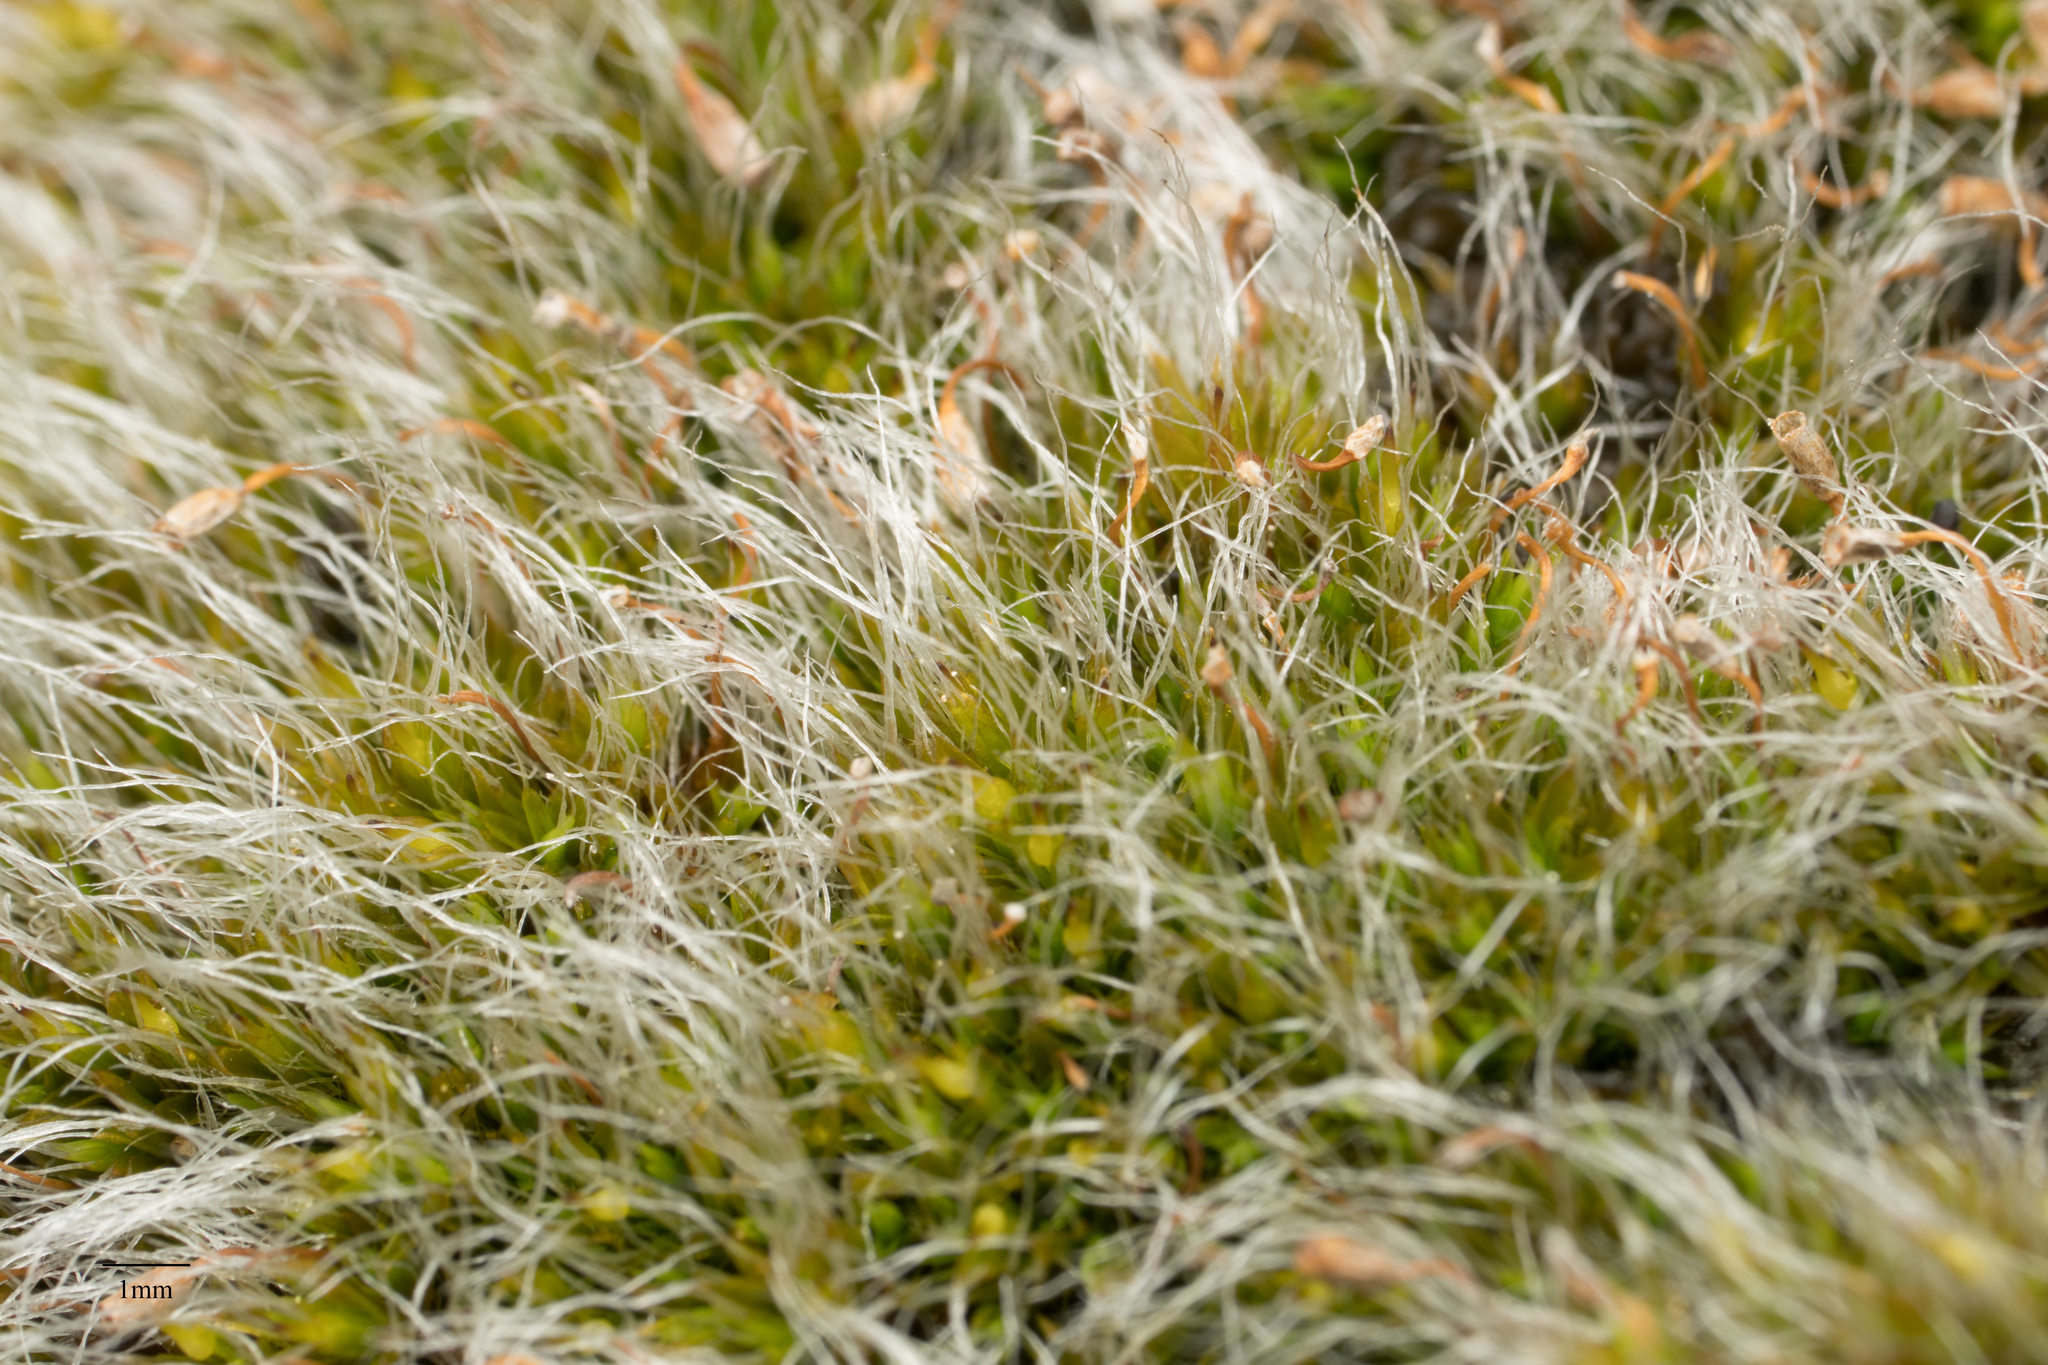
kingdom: Plantae
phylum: Bryophyta
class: Bryopsida
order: Grimmiales
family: Grimmiaceae
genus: Grimmia
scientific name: Grimmia pulvinata
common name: Grey-cushioned grimmia
